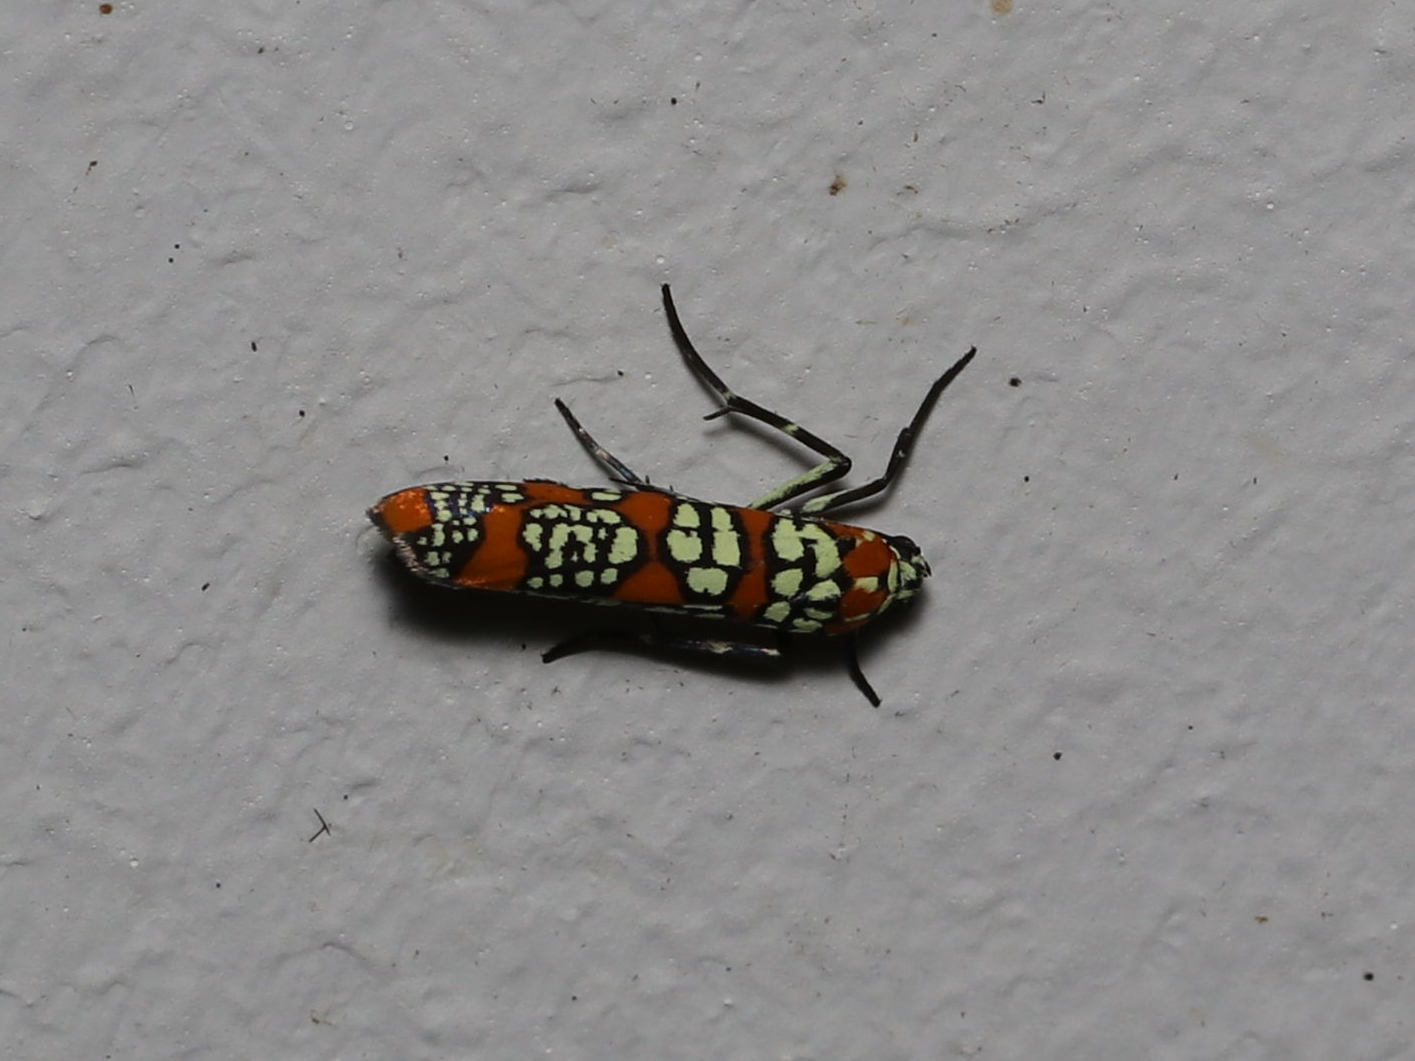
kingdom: Animalia
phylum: Arthropoda
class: Insecta
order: Lepidoptera
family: Attevidae
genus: Atteva
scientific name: Atteva punctella
